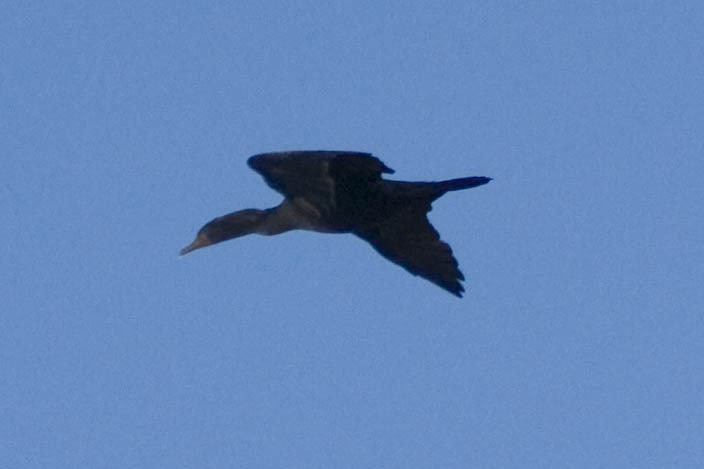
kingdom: Animalia
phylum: Chordata
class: Aves
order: Suliformes
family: Phalacrocoracidae
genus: Phalacrocorax
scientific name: Phalacrocorax auritus
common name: Double-crested cormorant
